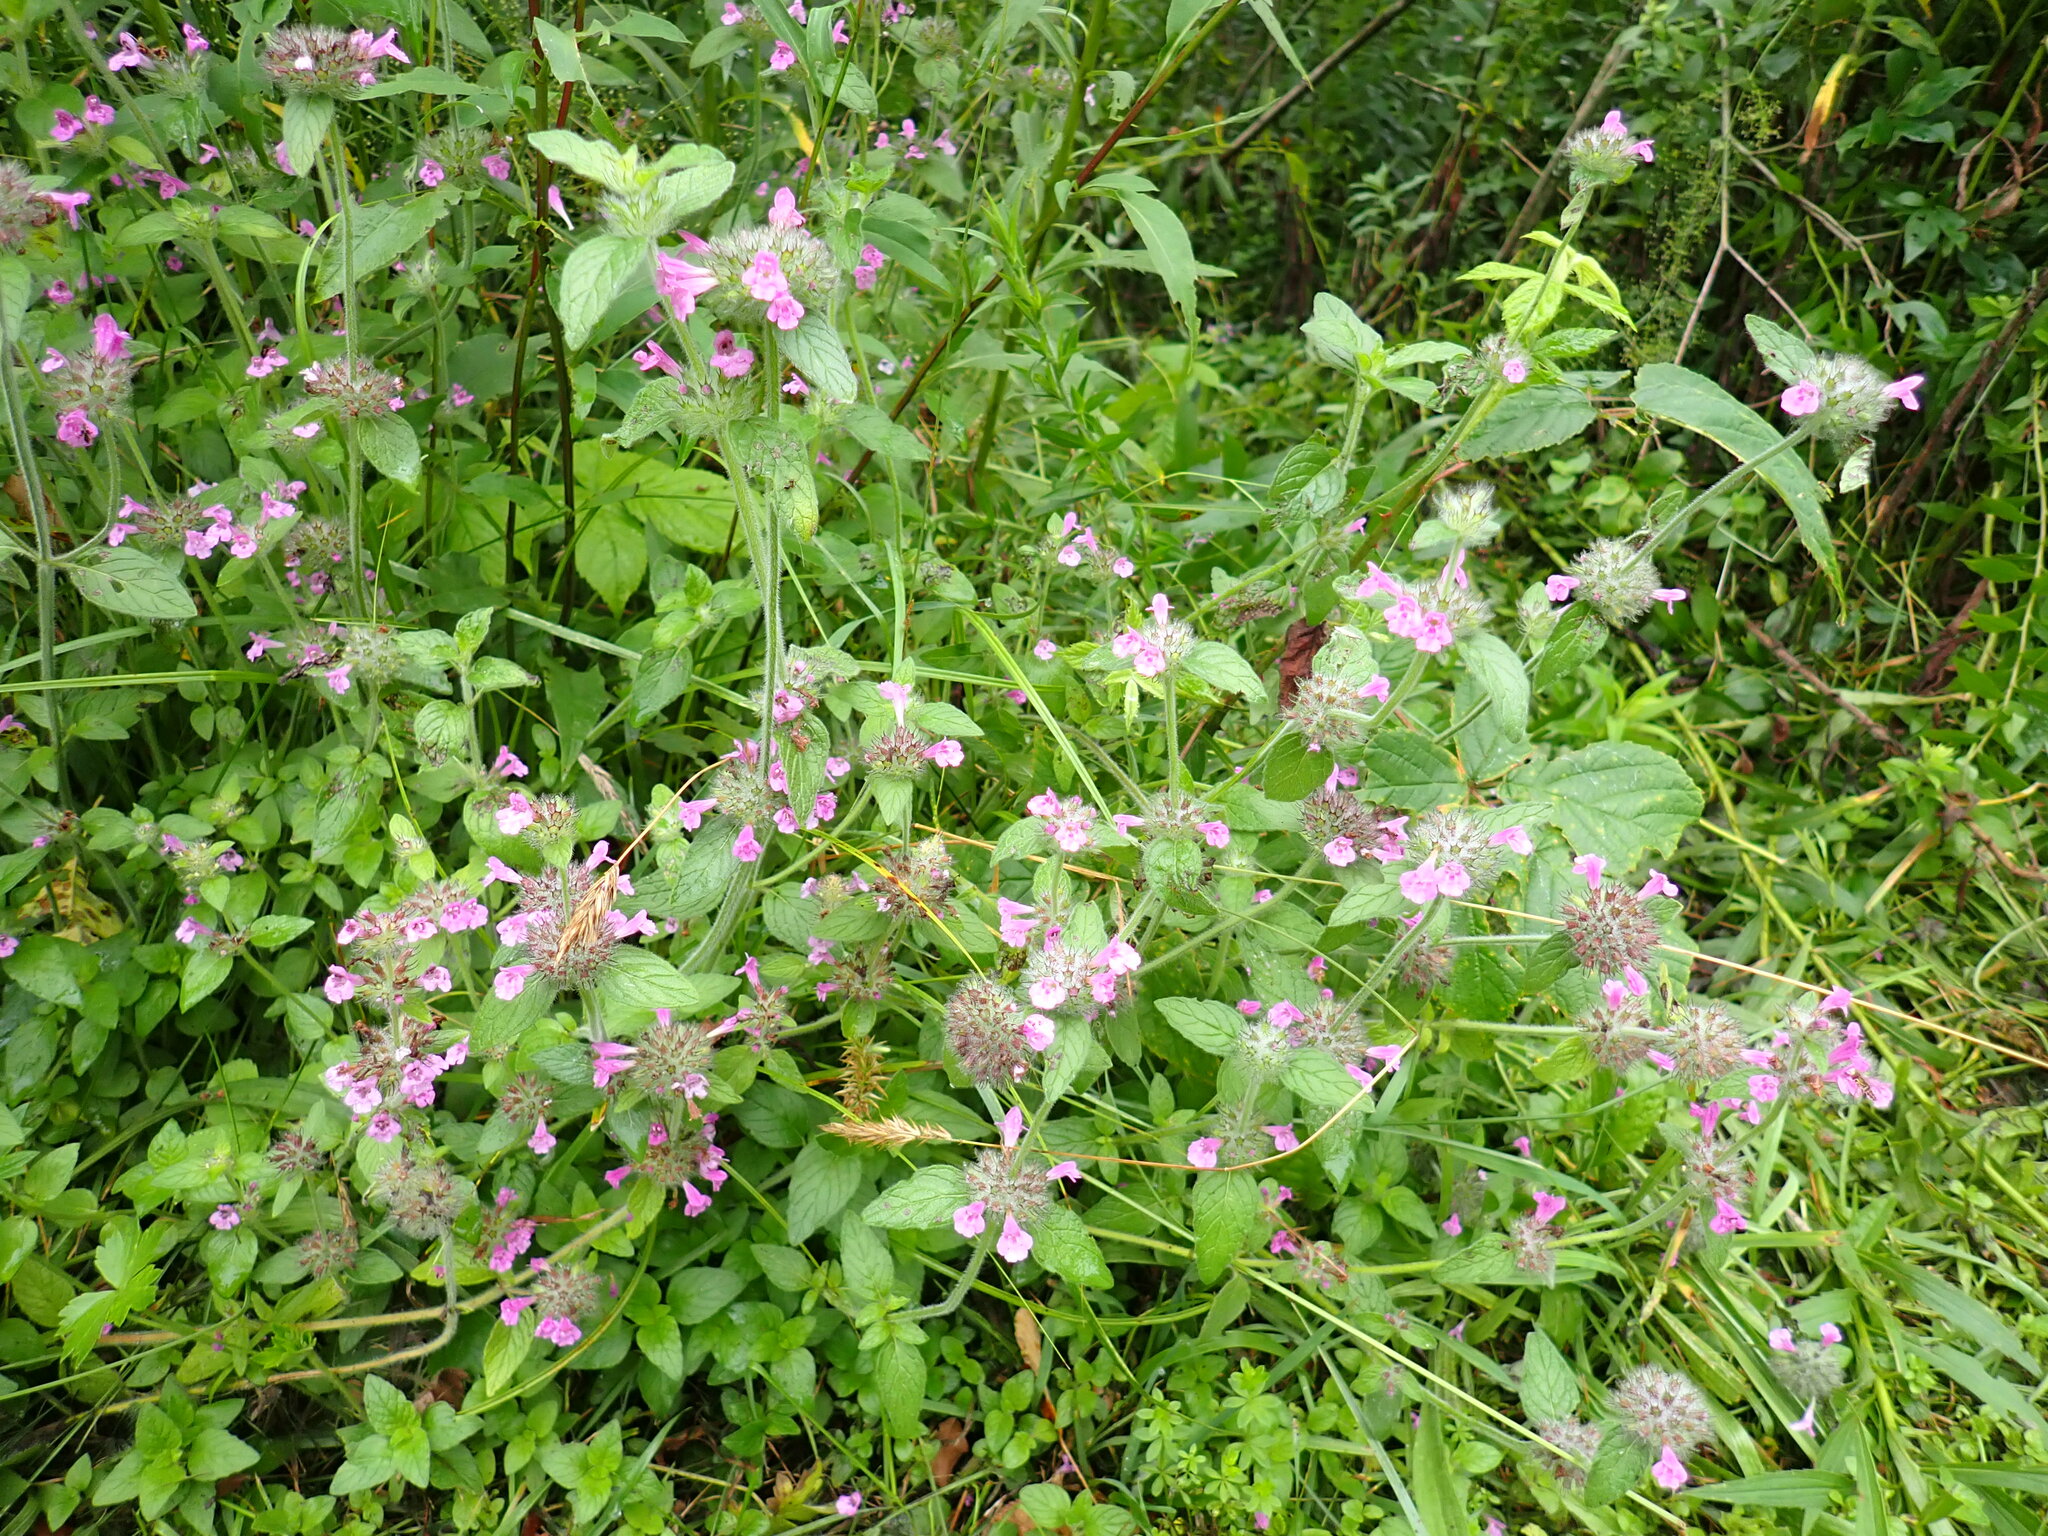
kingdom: Plantae
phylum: Tracheophyta
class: Magnoliopsida
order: Lamiales
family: Lamiaceae
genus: Clinopodium
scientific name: Clinopodium vulgare
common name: Wild basil
